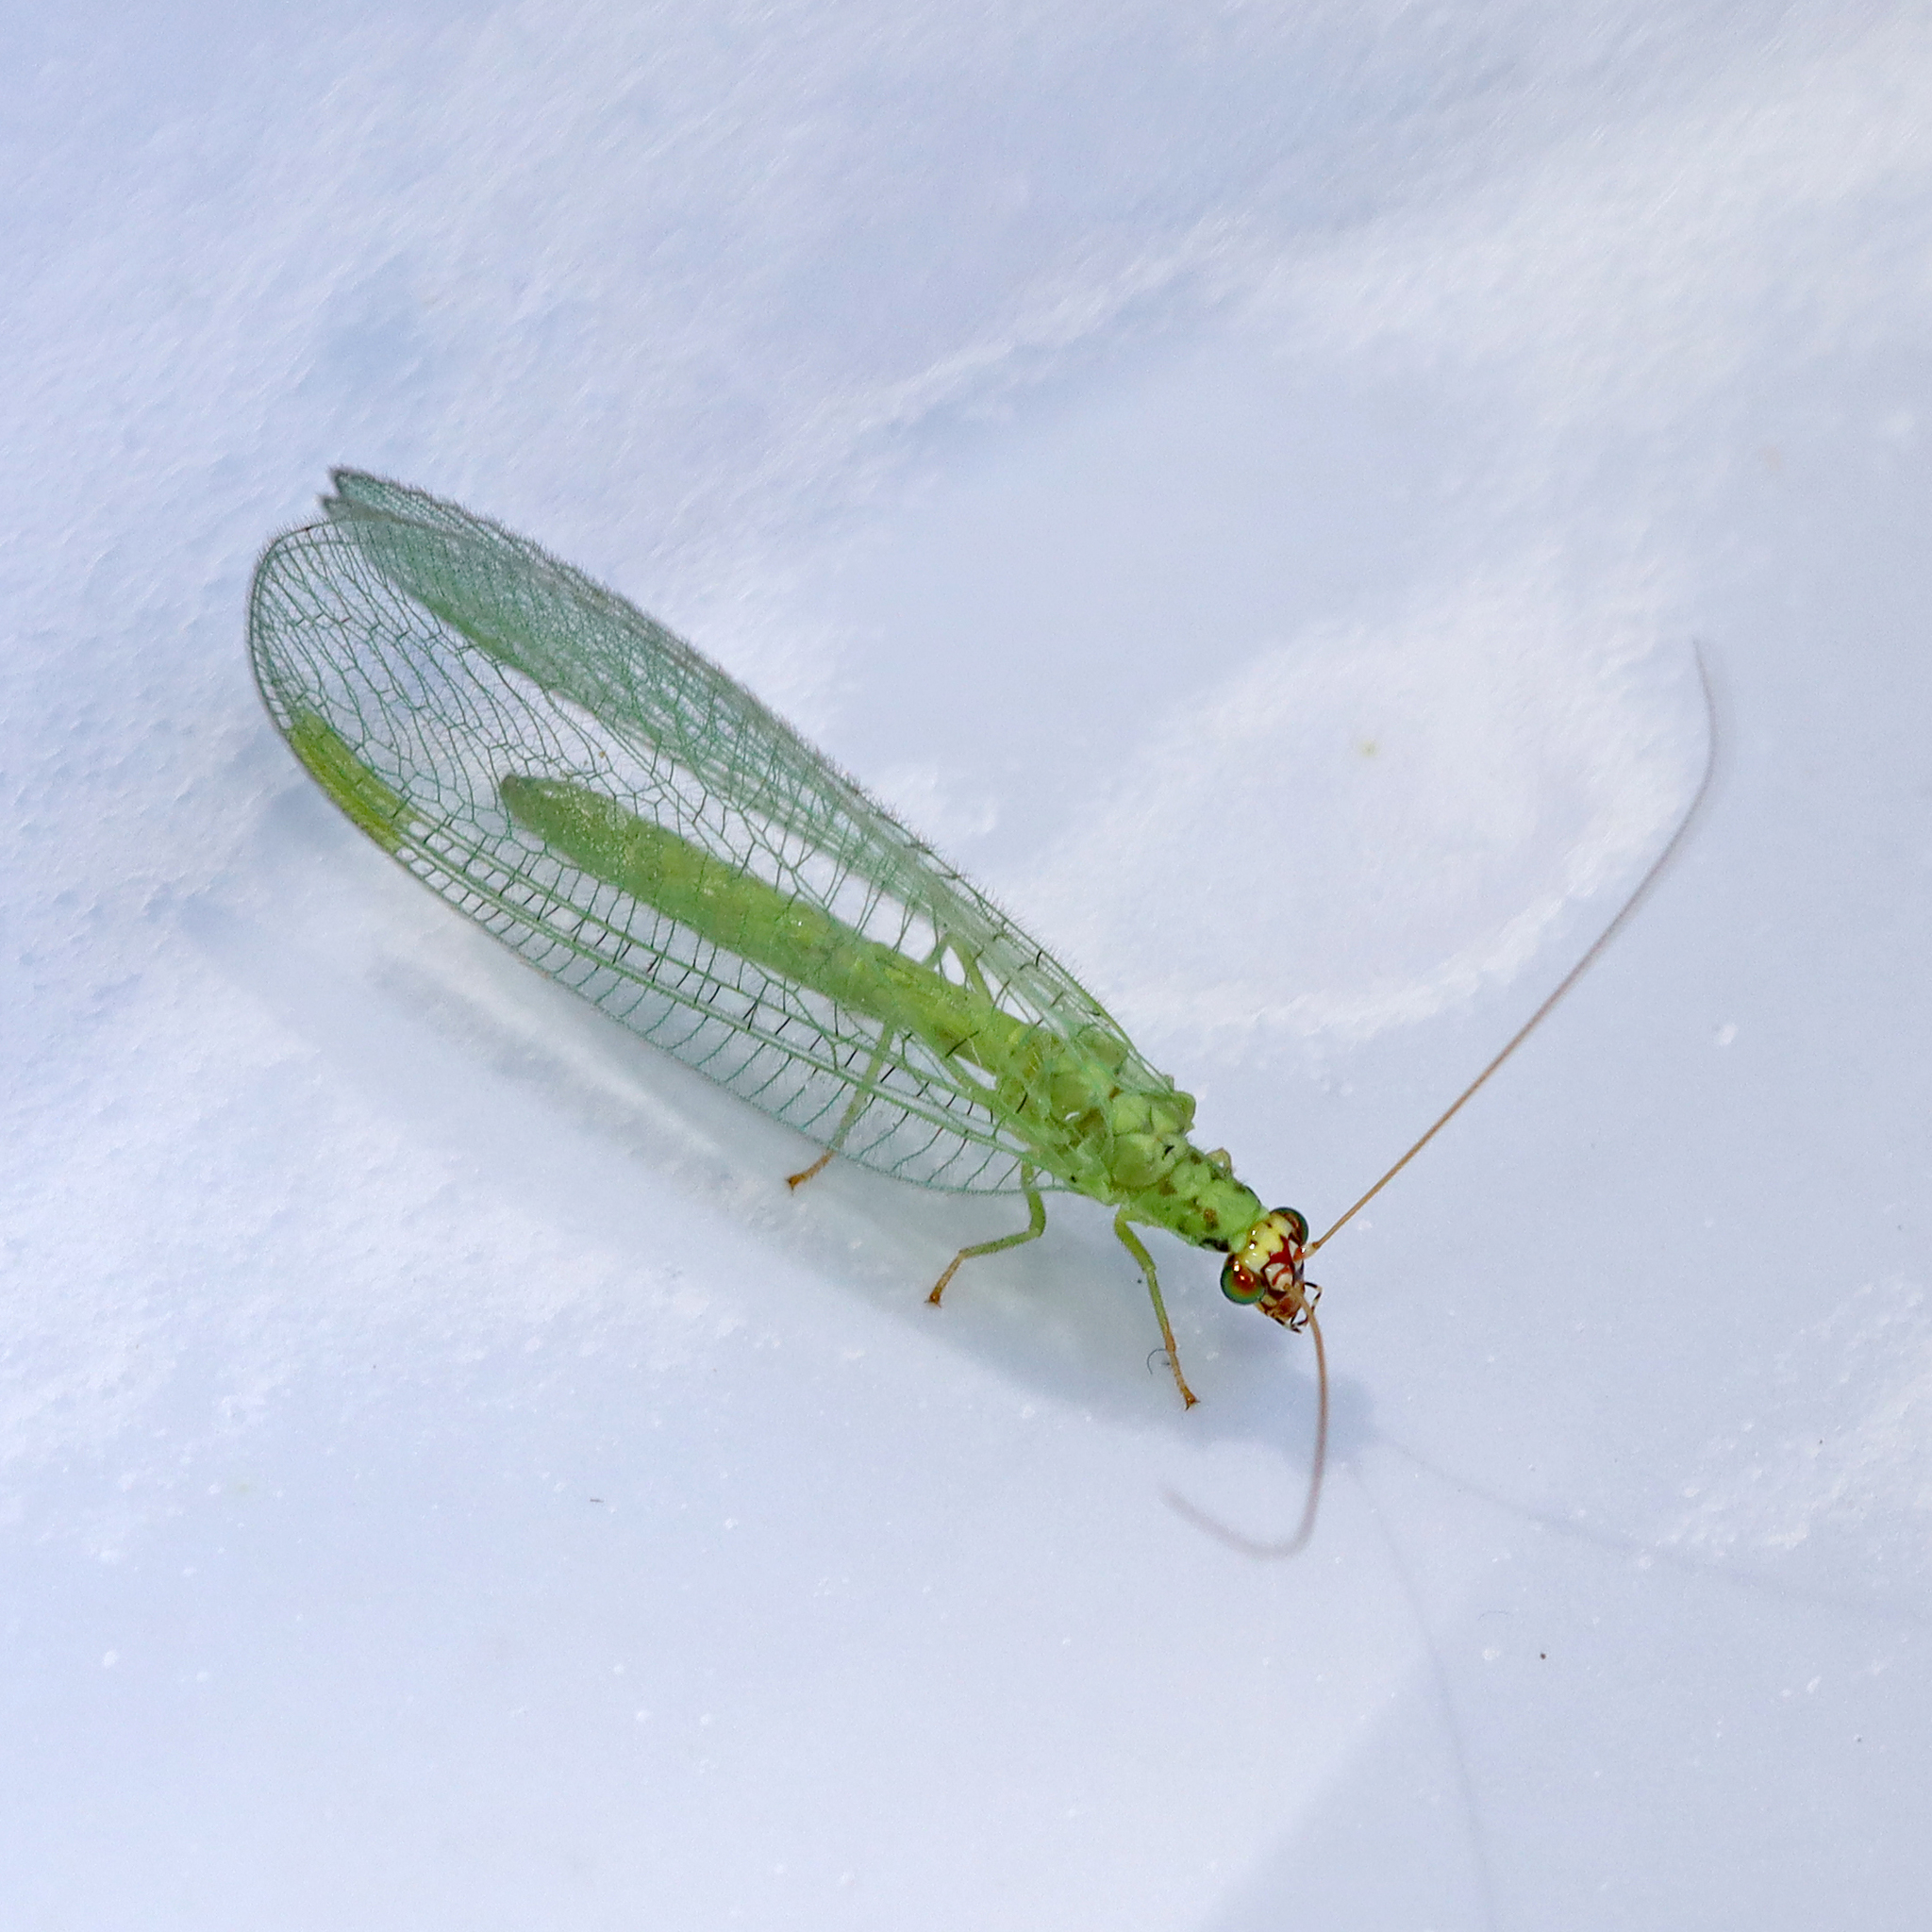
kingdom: Animalia
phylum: Arthropoda
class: Insecta
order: Neuroptera
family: Chrysopidae
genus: Chrysopa
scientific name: Chrysopa oculata
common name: Golden-eyed lacewing
